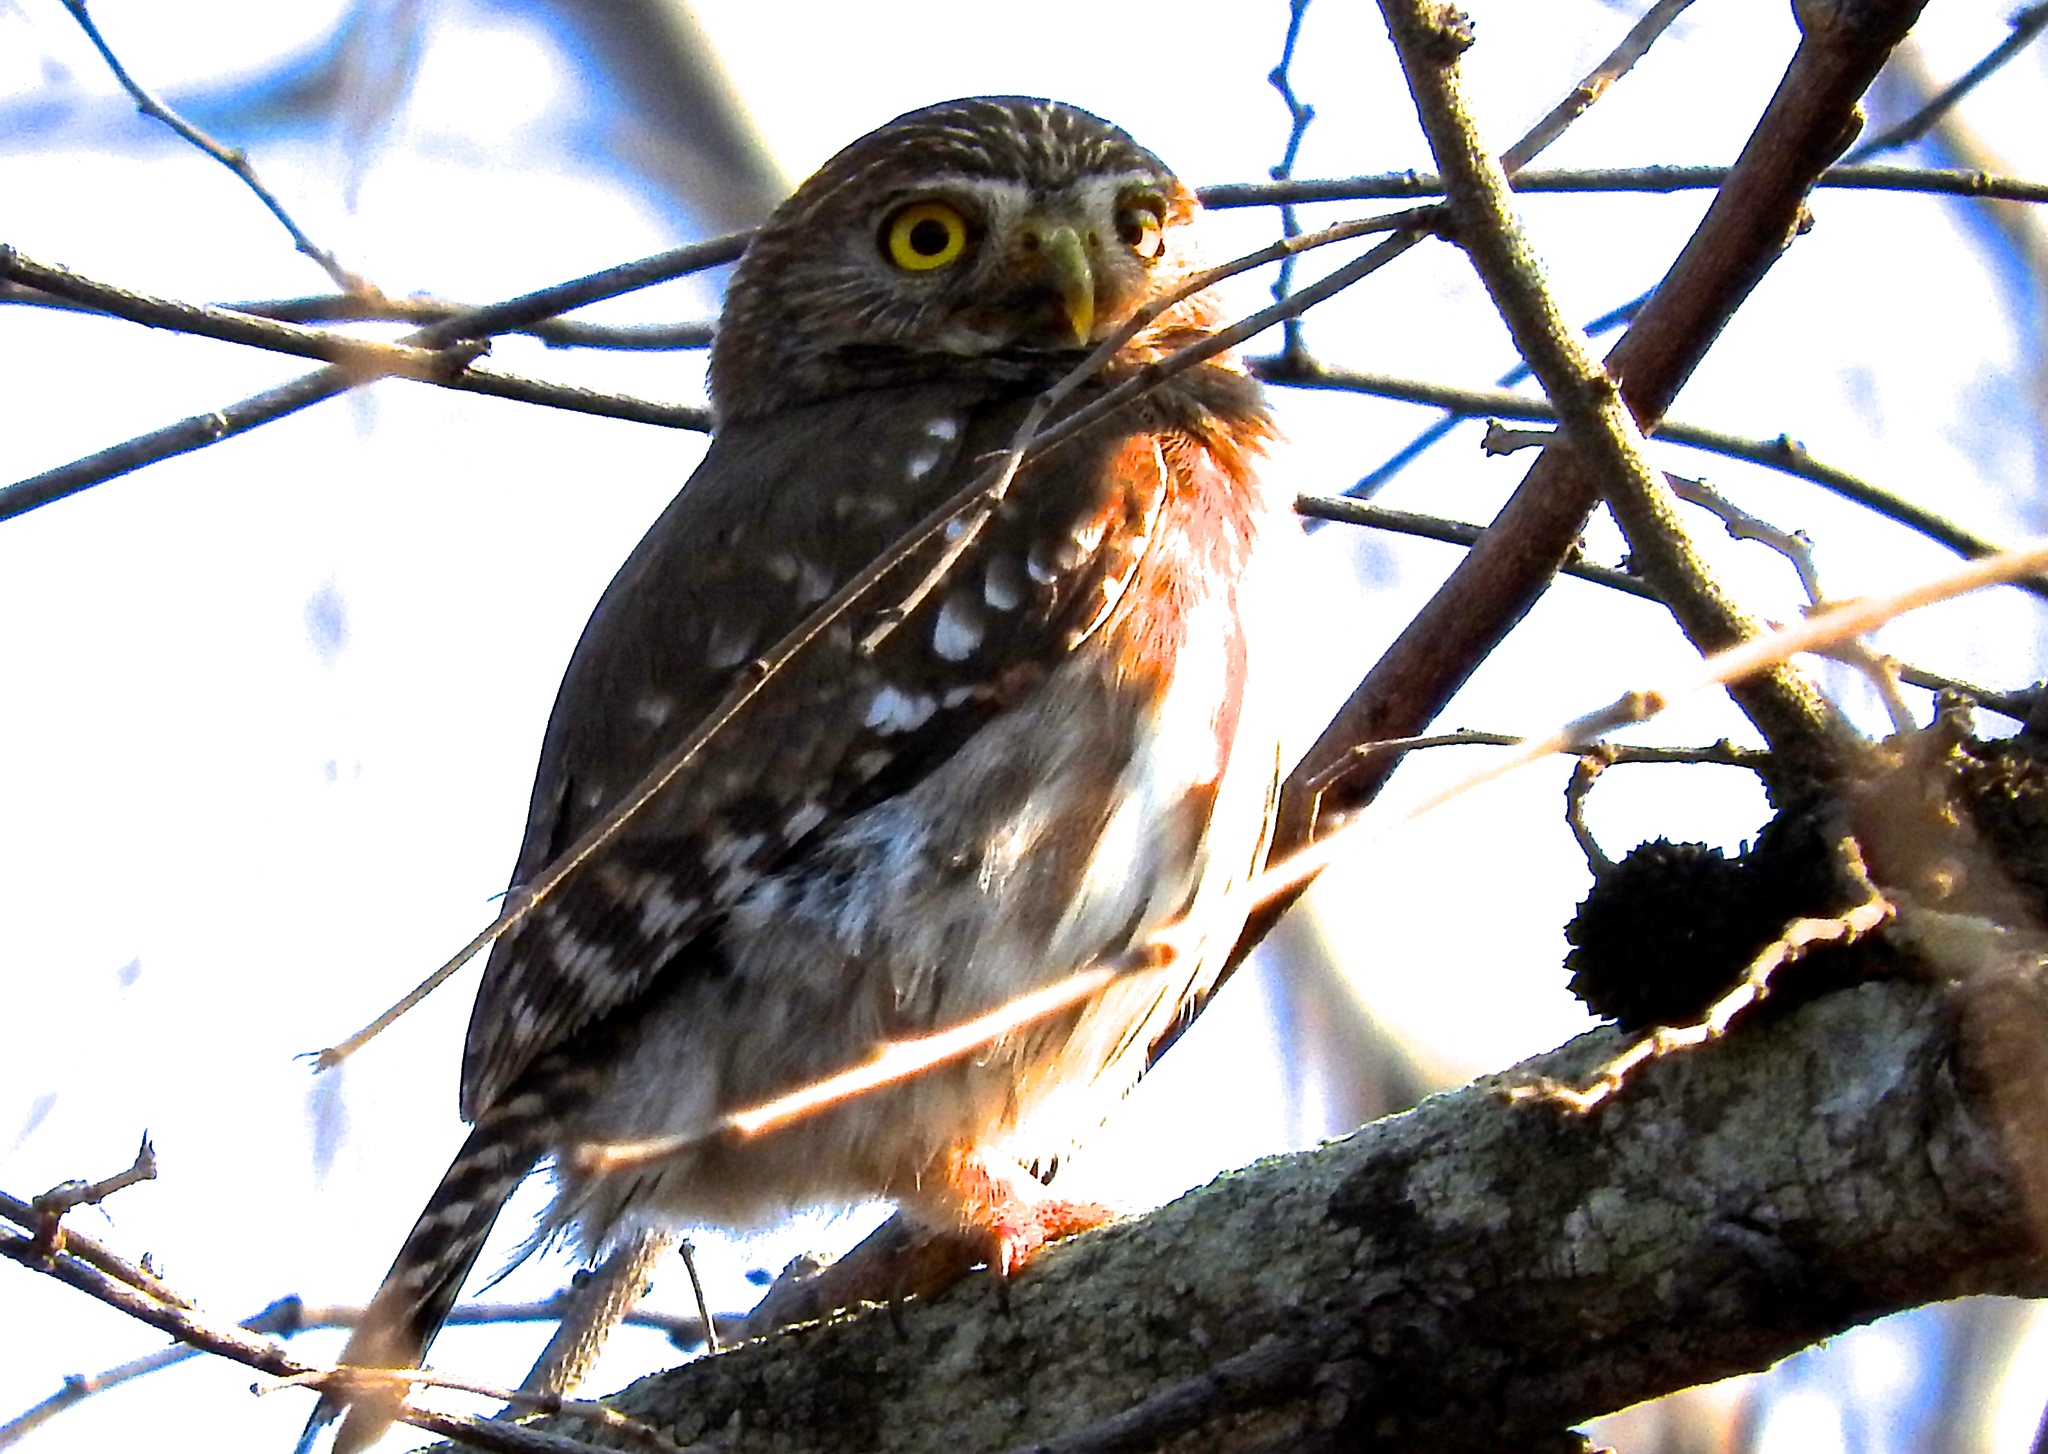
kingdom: Animalia
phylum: Chordata
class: Aves
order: Strigiformes
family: Strigidae
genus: Glaucidium
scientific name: Glaucidium brasilianum
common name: Ferruginous pygmy-owl
